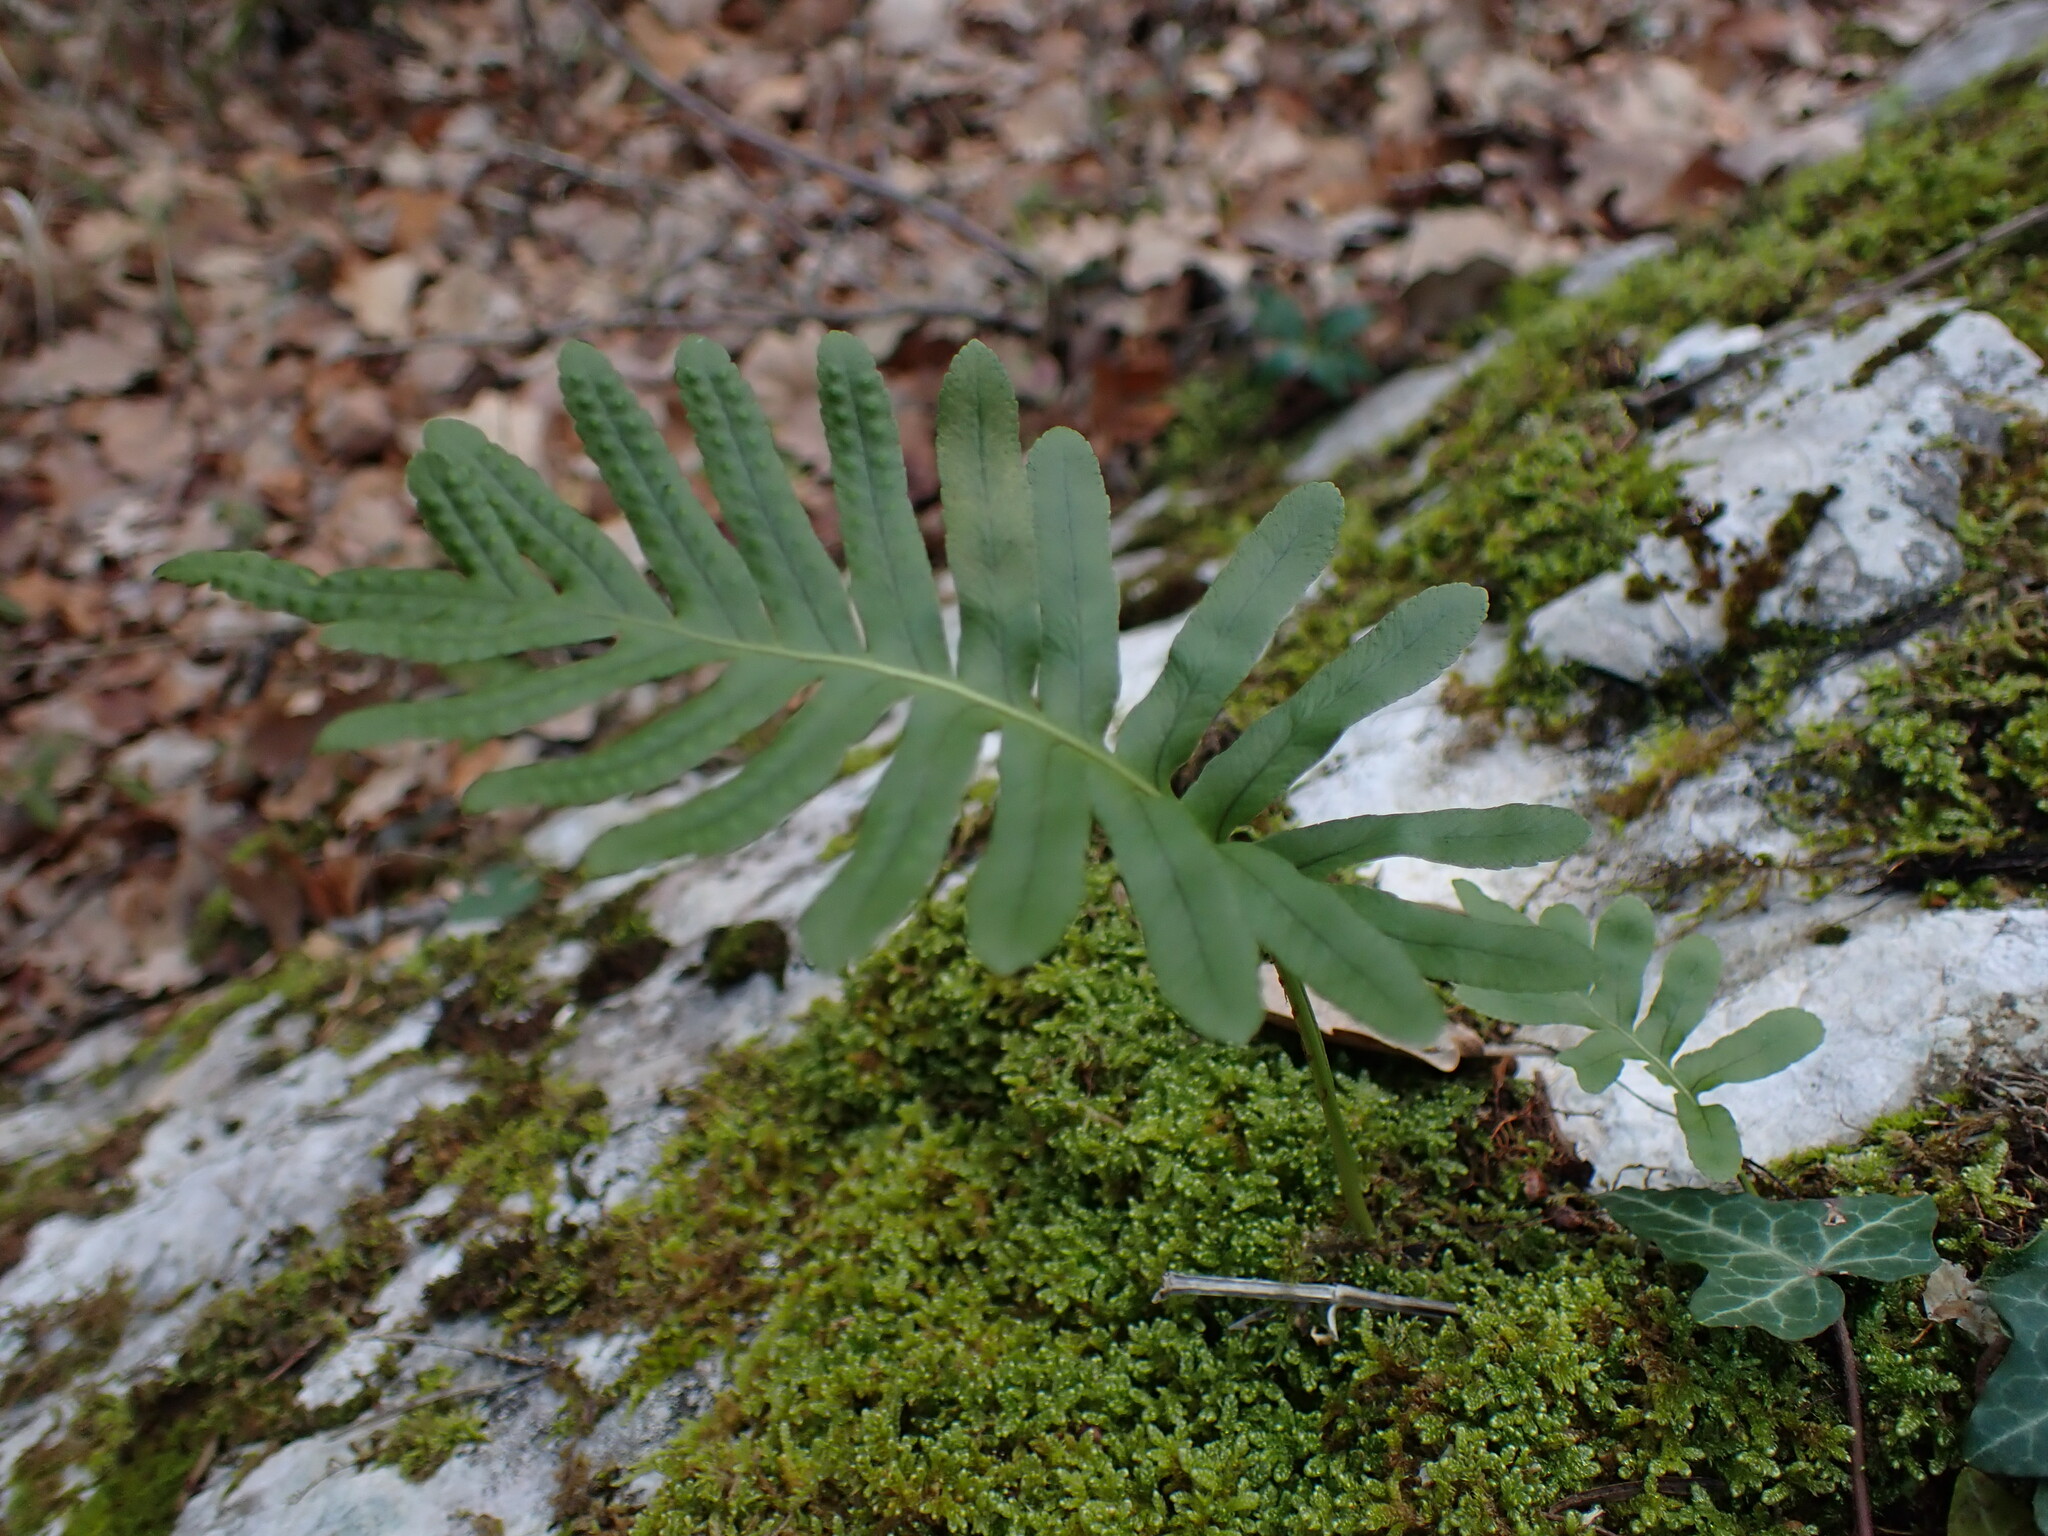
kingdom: Plantae
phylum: Tracheophyta
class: Polypodiopsida
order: Polypodiales
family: Polypodiaceae
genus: Polypodium
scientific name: Polypodium cambricum
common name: Southern polypody
